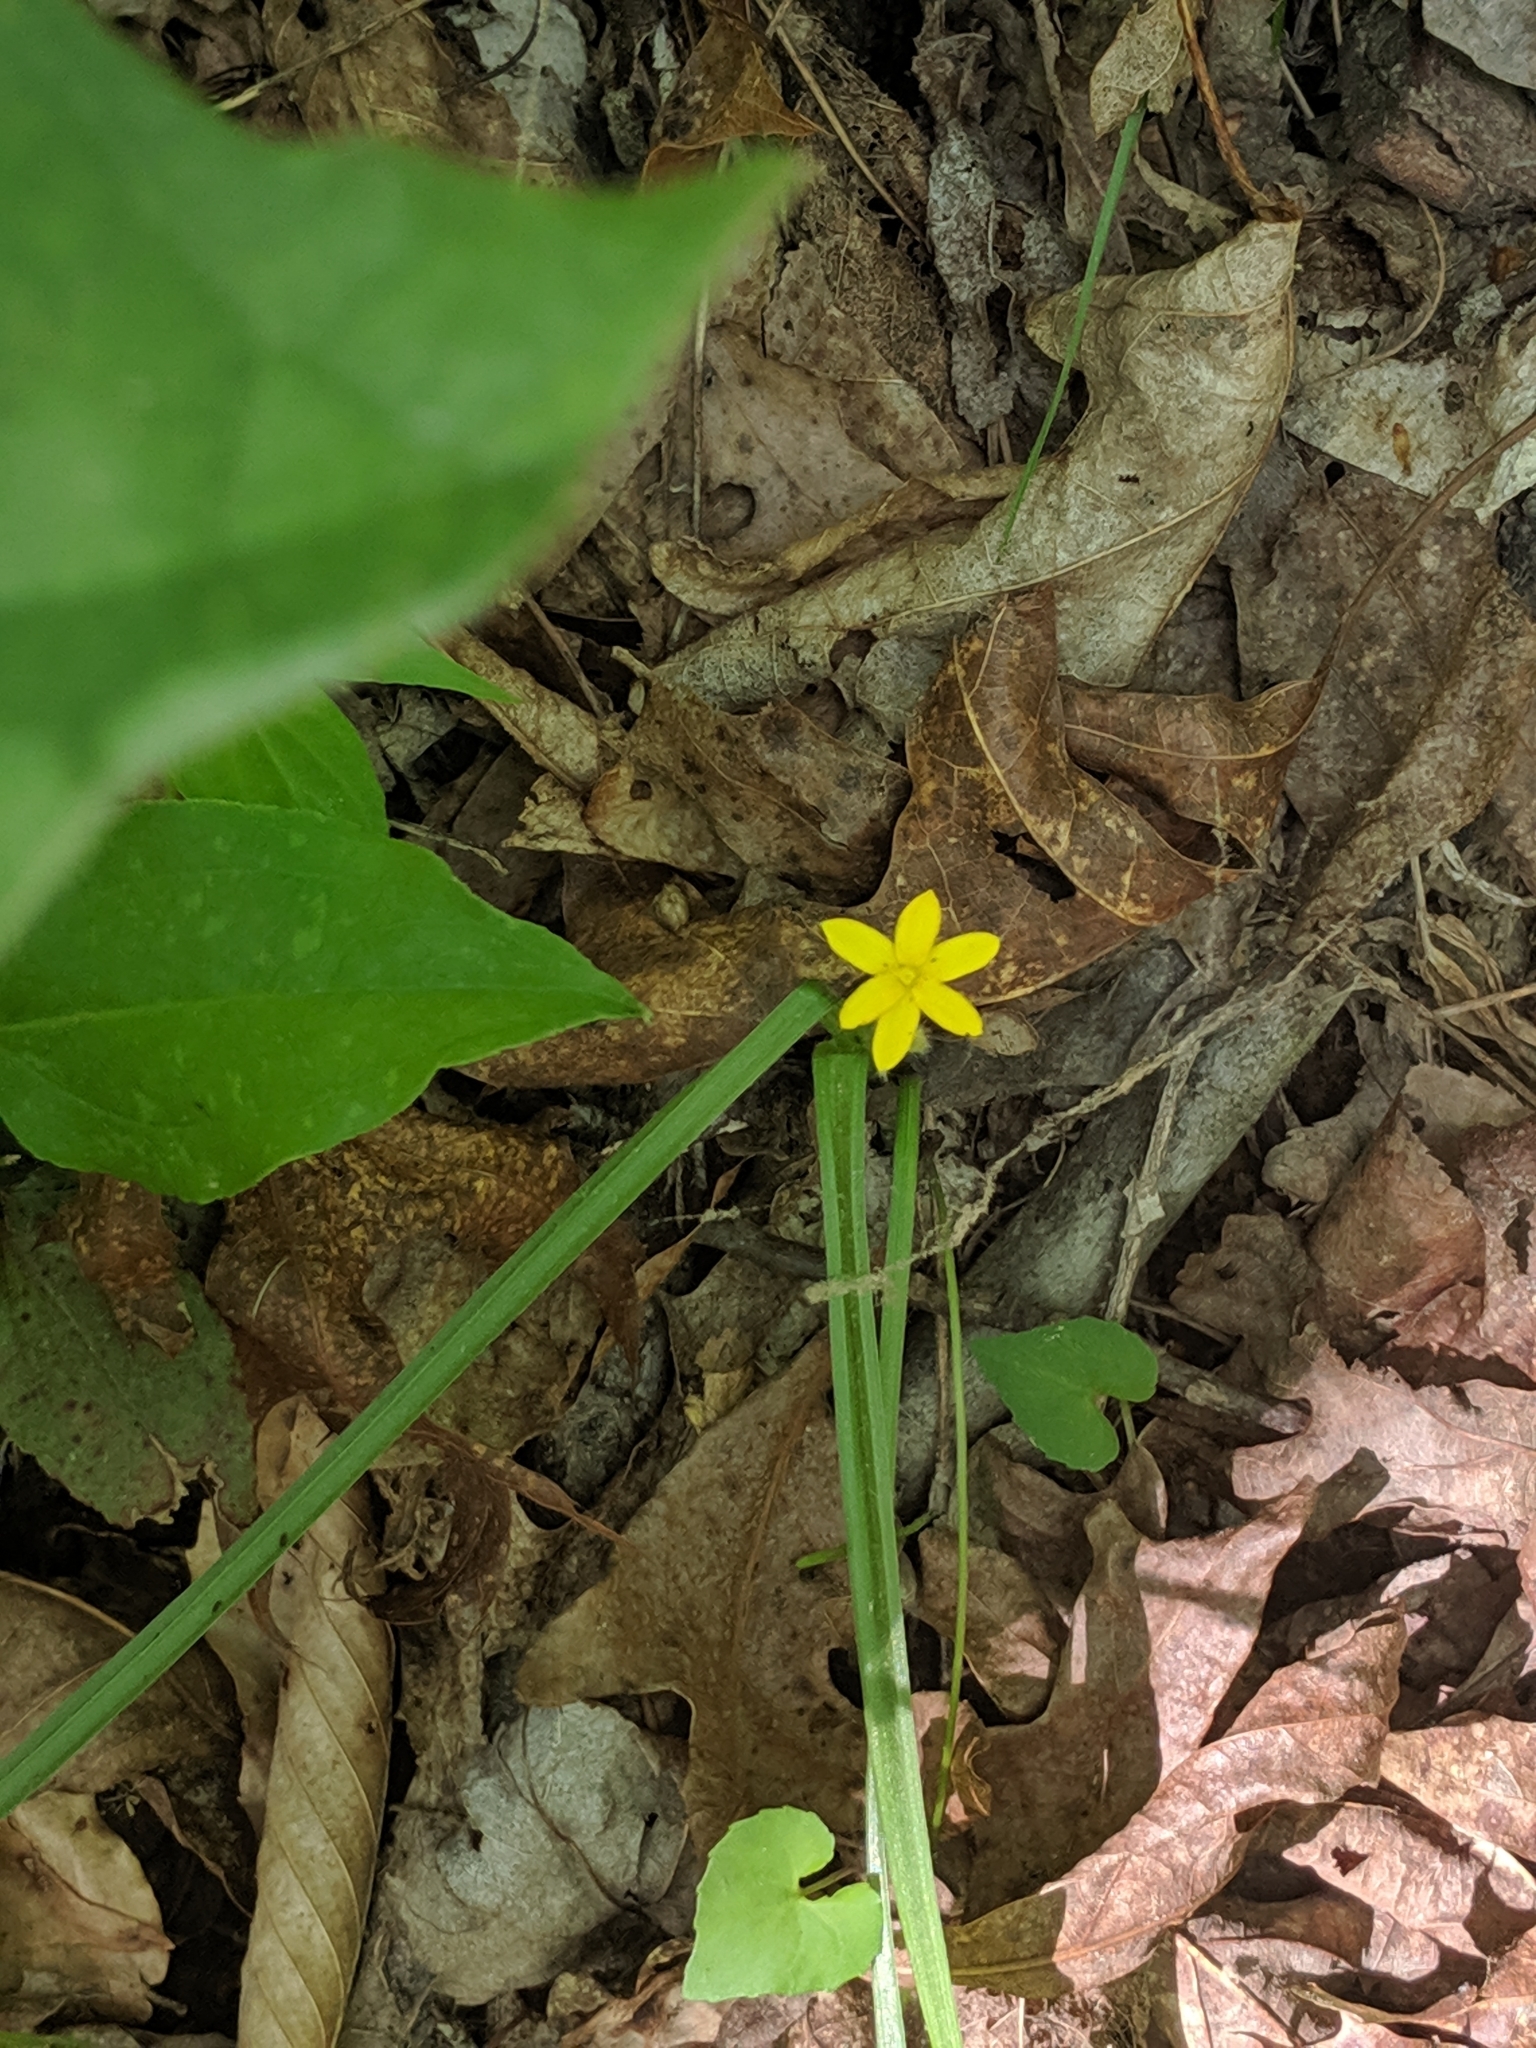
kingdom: Plantae
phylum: Tracheophyta
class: Liliopsida
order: Asparagales
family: Hypoxidaceae
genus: Hypoxis
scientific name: Hypoxis hirsuta
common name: Common goldstar
